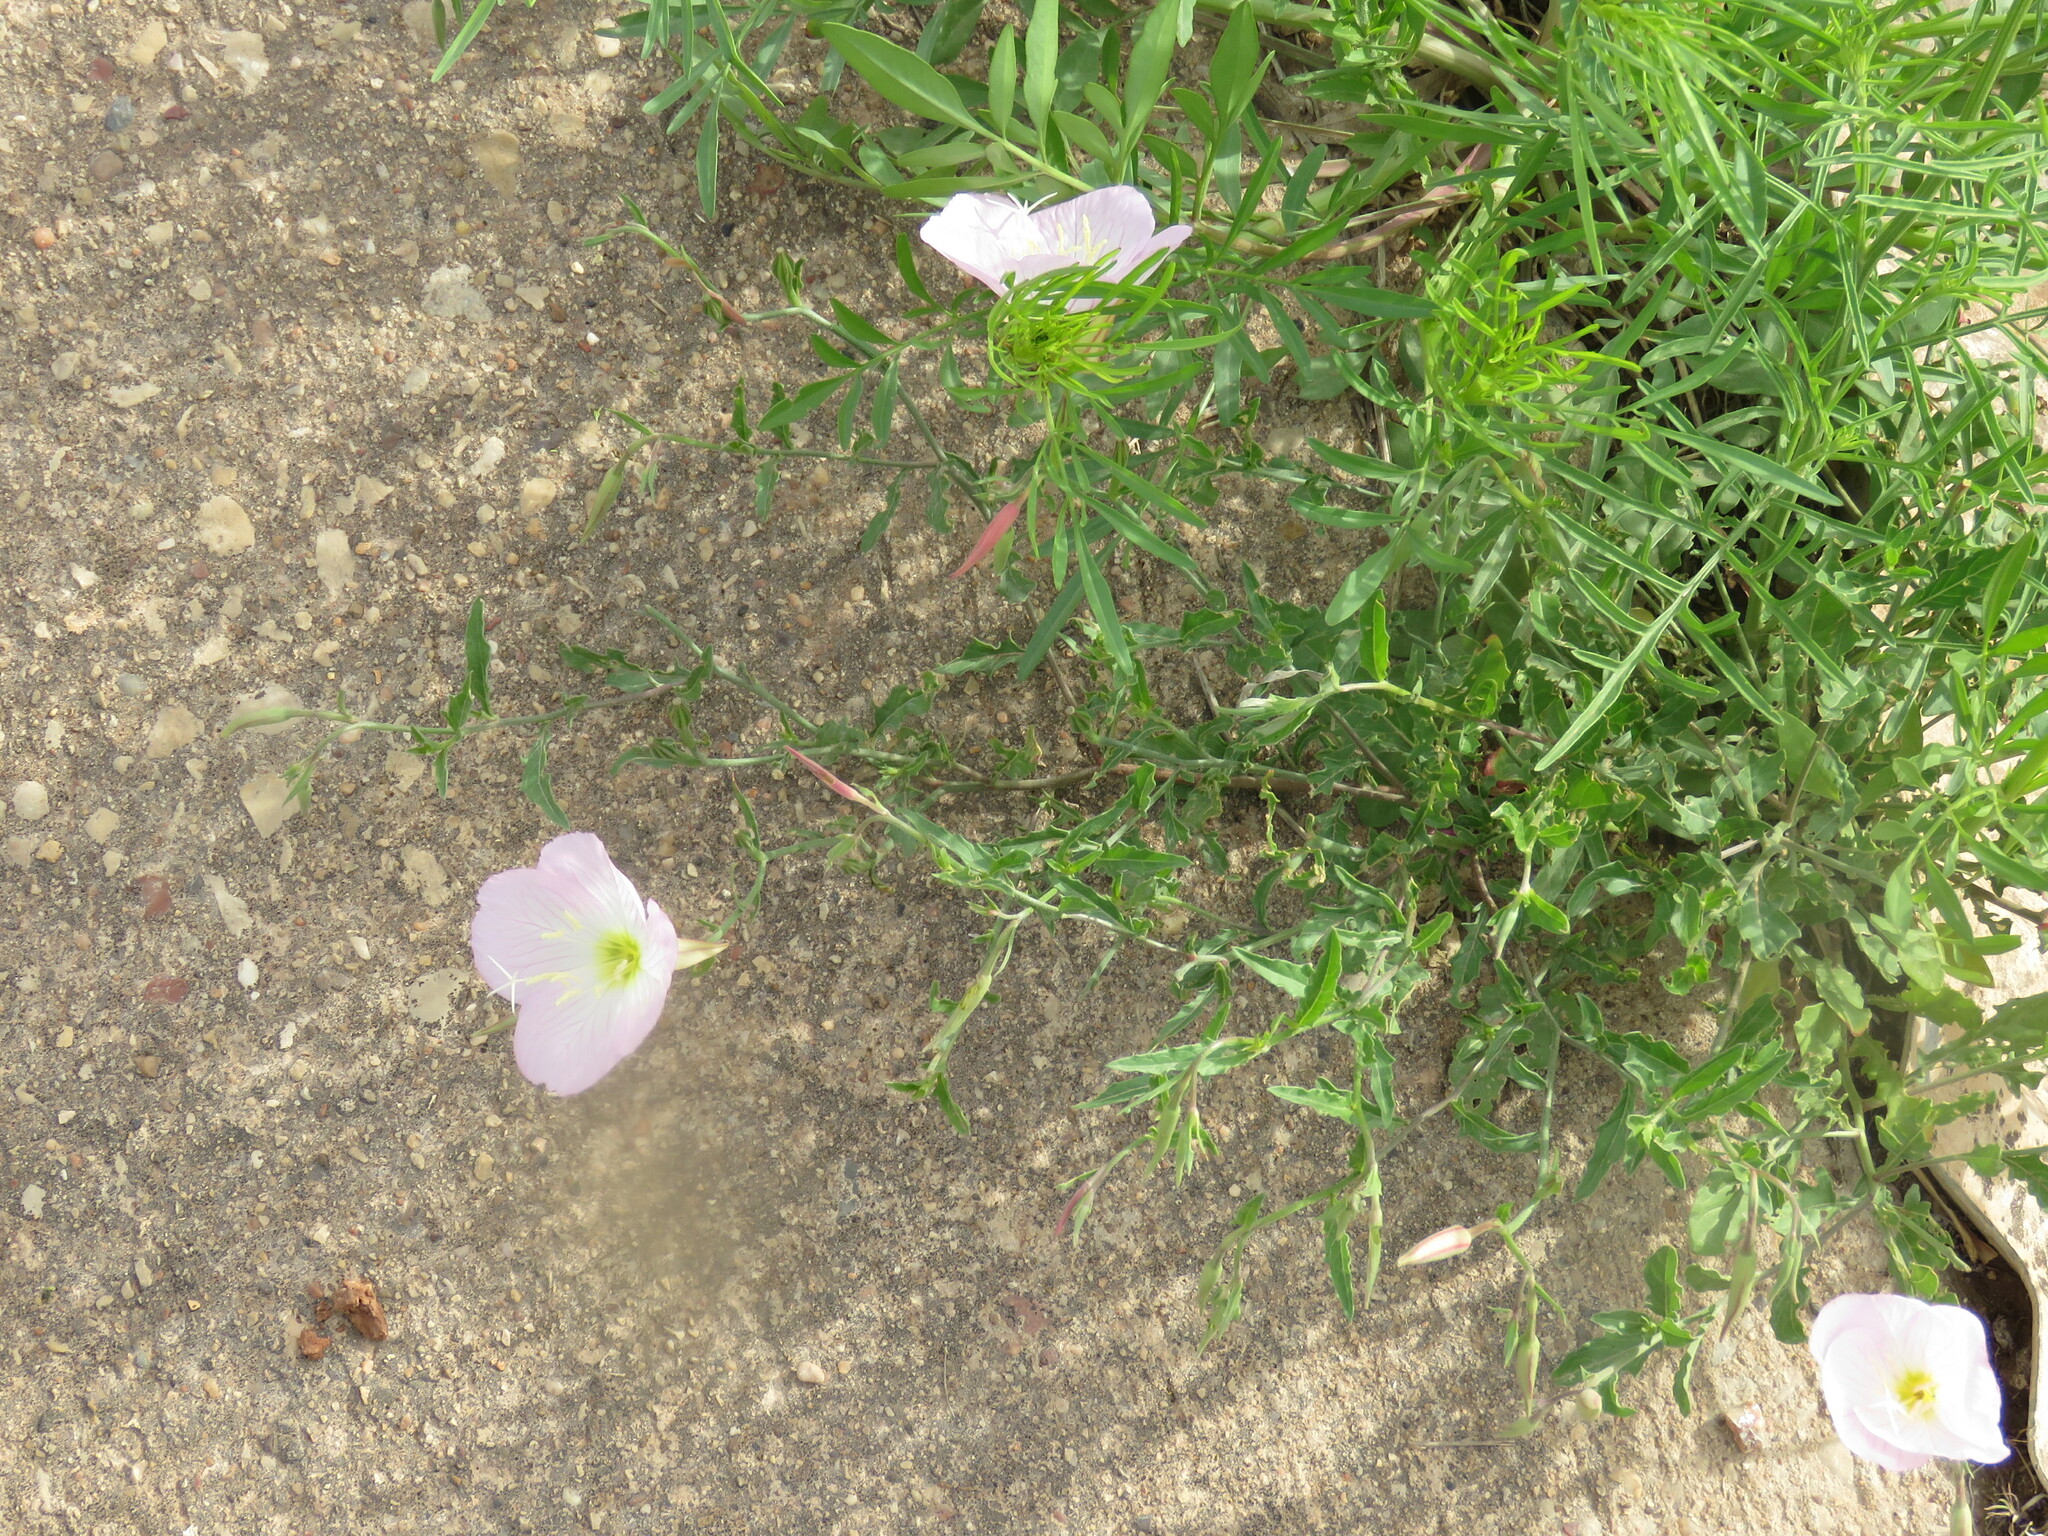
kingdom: Plantae
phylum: Tracheophyta
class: Magnoliopsida
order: Myrtales
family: Onagraceae
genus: Oenothera
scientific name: Oenothera speciosa
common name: White evening-primrose
